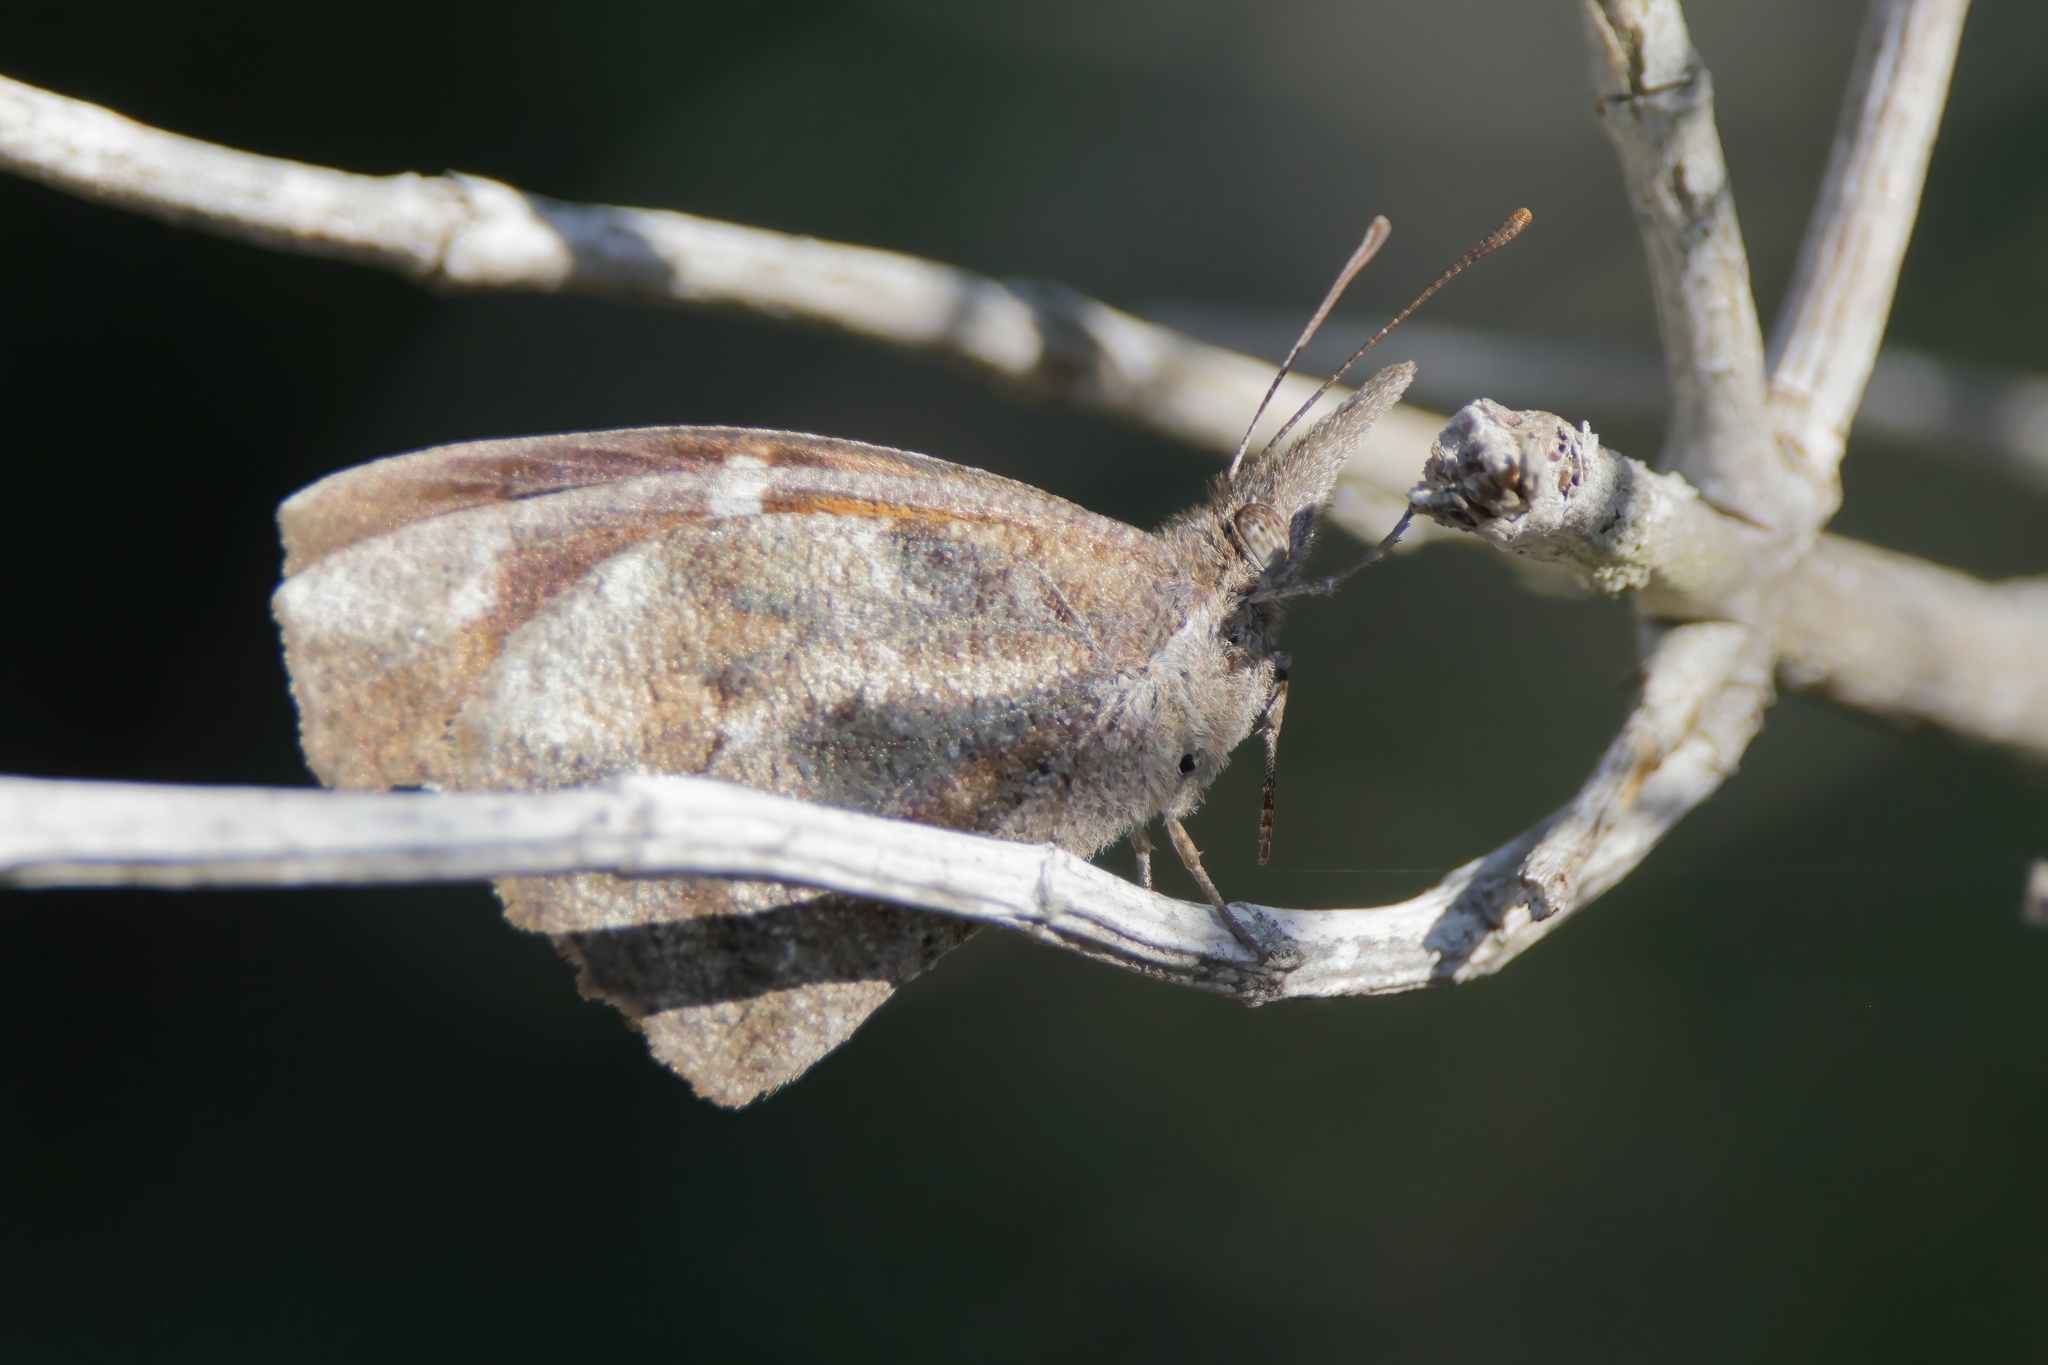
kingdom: Animalia
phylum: Arthropoda
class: Insecta
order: Lepidoptera
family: Nymphalidae
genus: Libytheana
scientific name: Libytheana carinenta
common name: American snout
